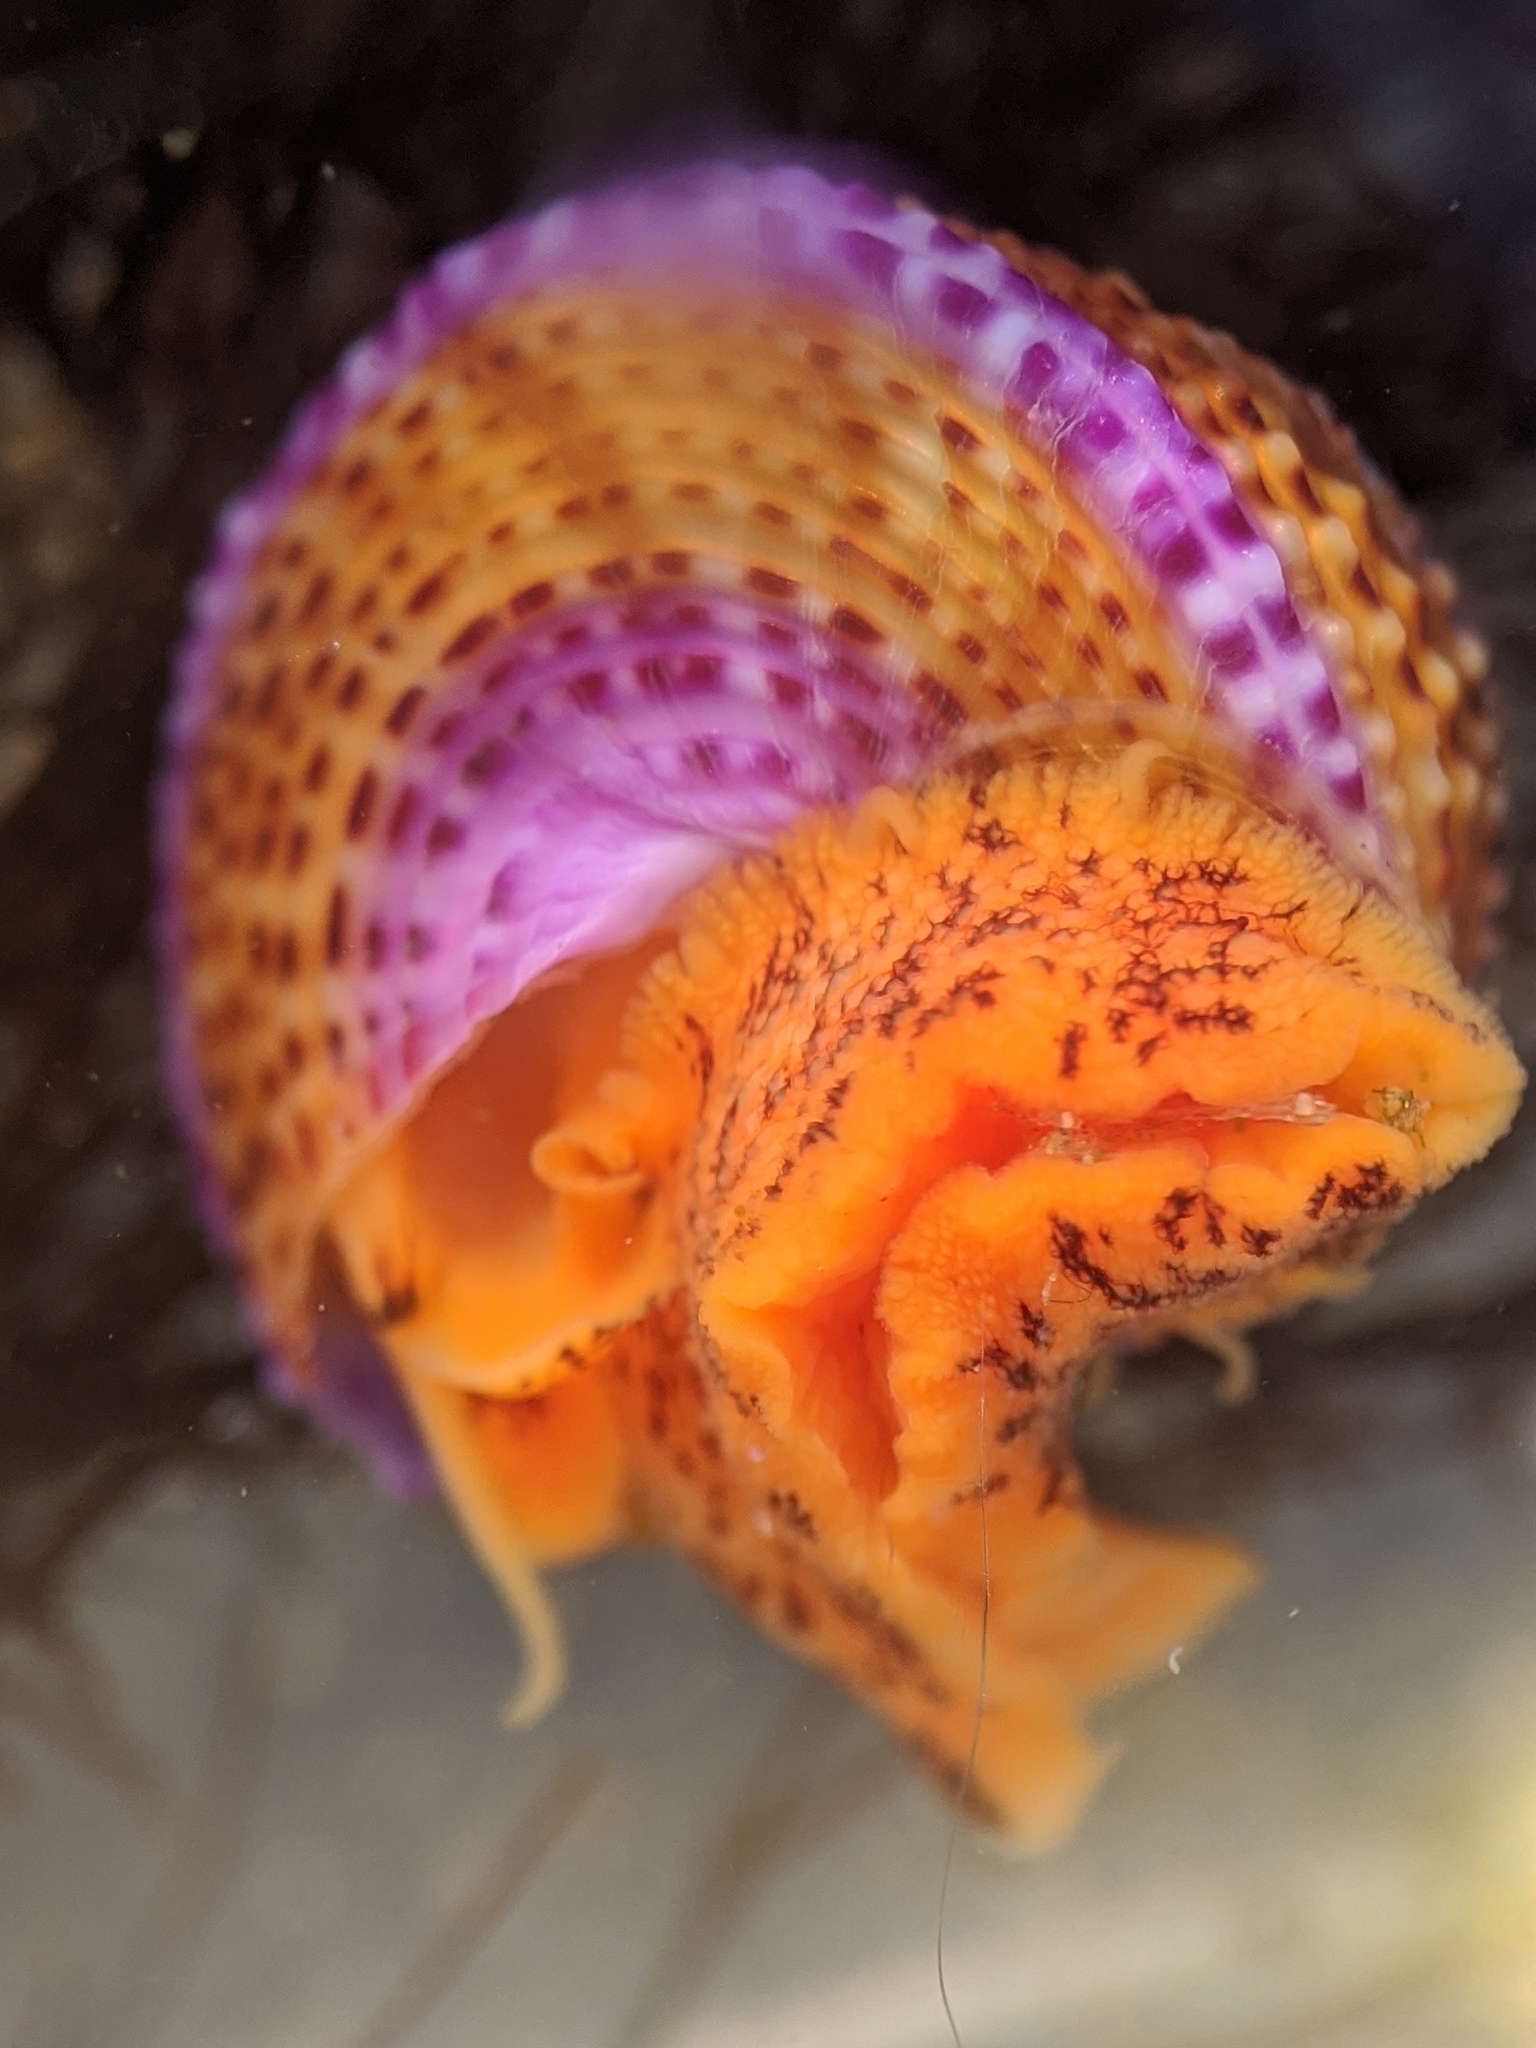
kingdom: Animalia
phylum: Mollusca
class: Gastropoda
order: Trochida
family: Calliostomatidae
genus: Calliostoma
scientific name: Calliostoma annulatum
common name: Blue-ring topsnail
